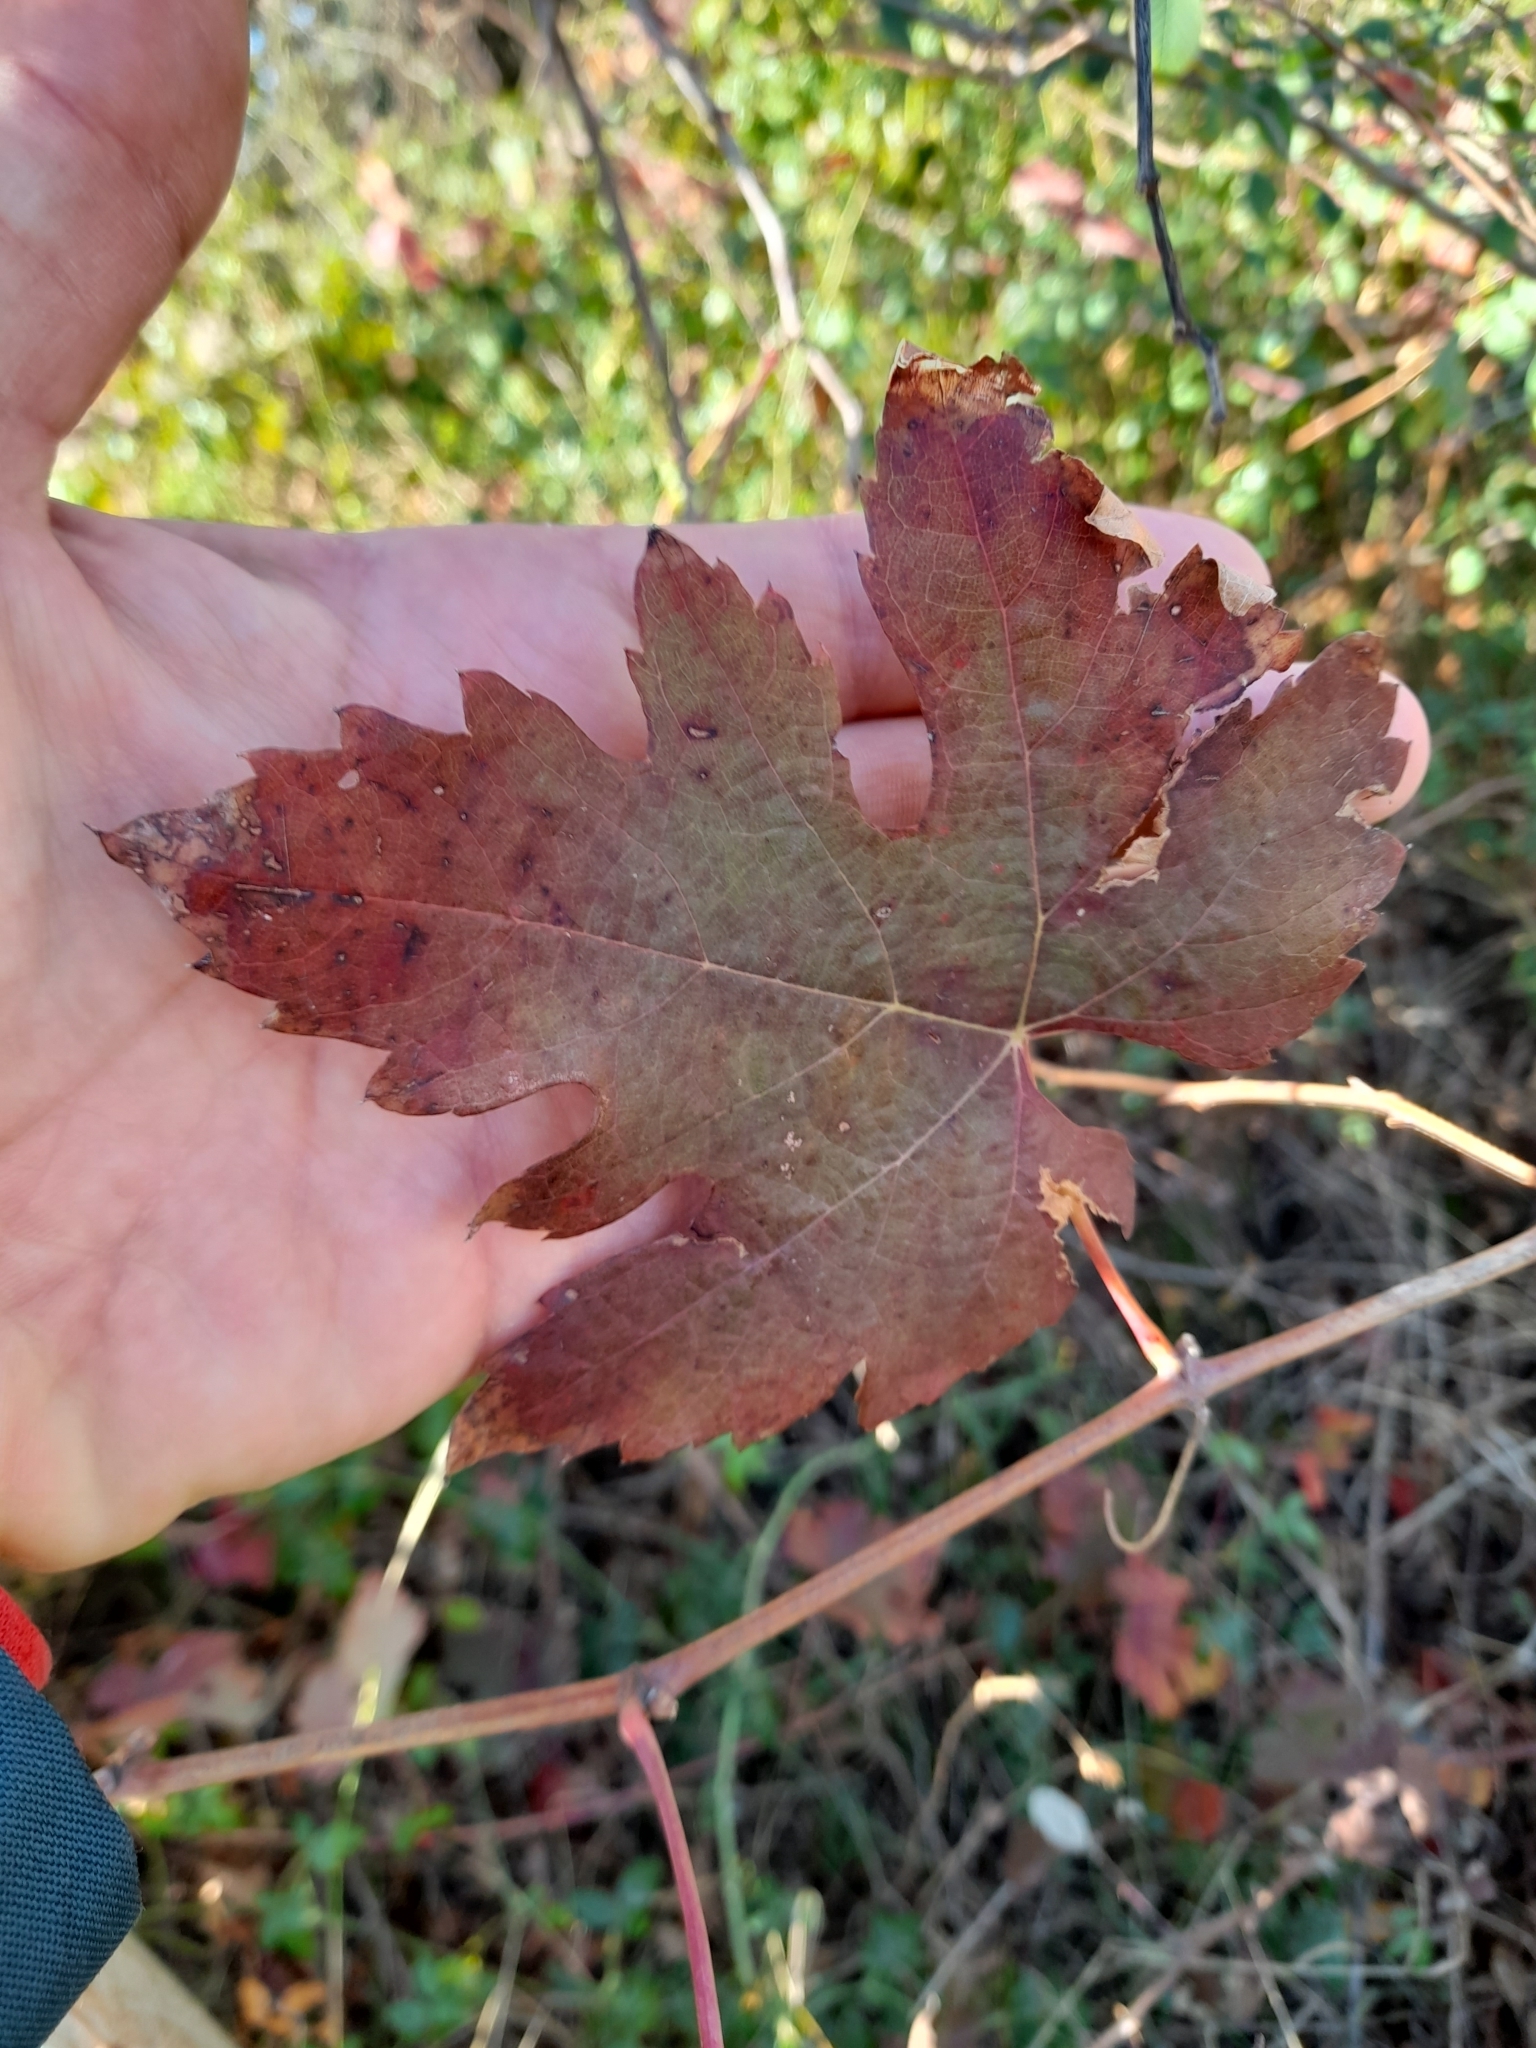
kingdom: Plantae
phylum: Tracheophyta
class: Magnoliopsida
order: Vitales
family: Vitaceae
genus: Vitis
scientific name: Vitis vinifera
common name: Grape-vine
